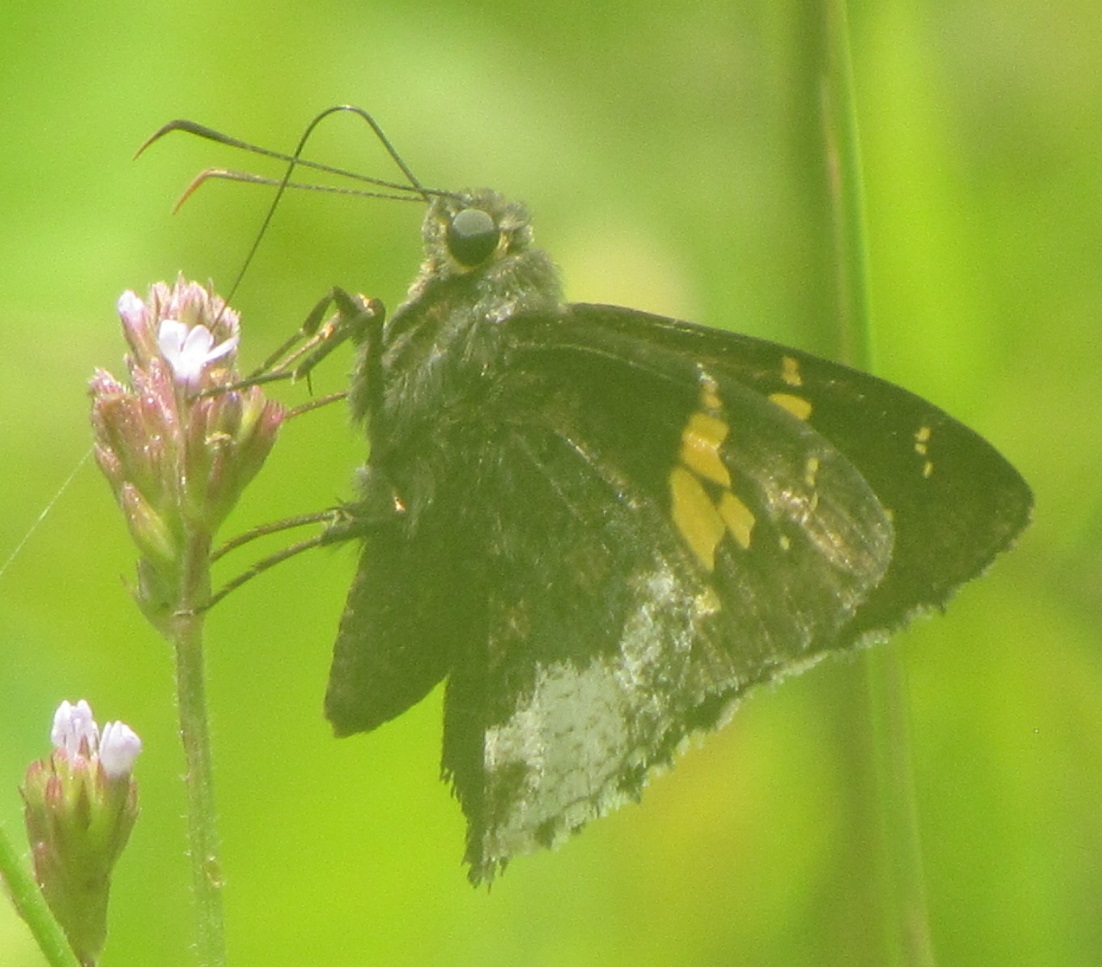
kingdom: Animalia
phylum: Arthropoda
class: Insecta
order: Lepidoptera
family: Hesperiidae
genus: Thorybes
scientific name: Thorybes lyciades
